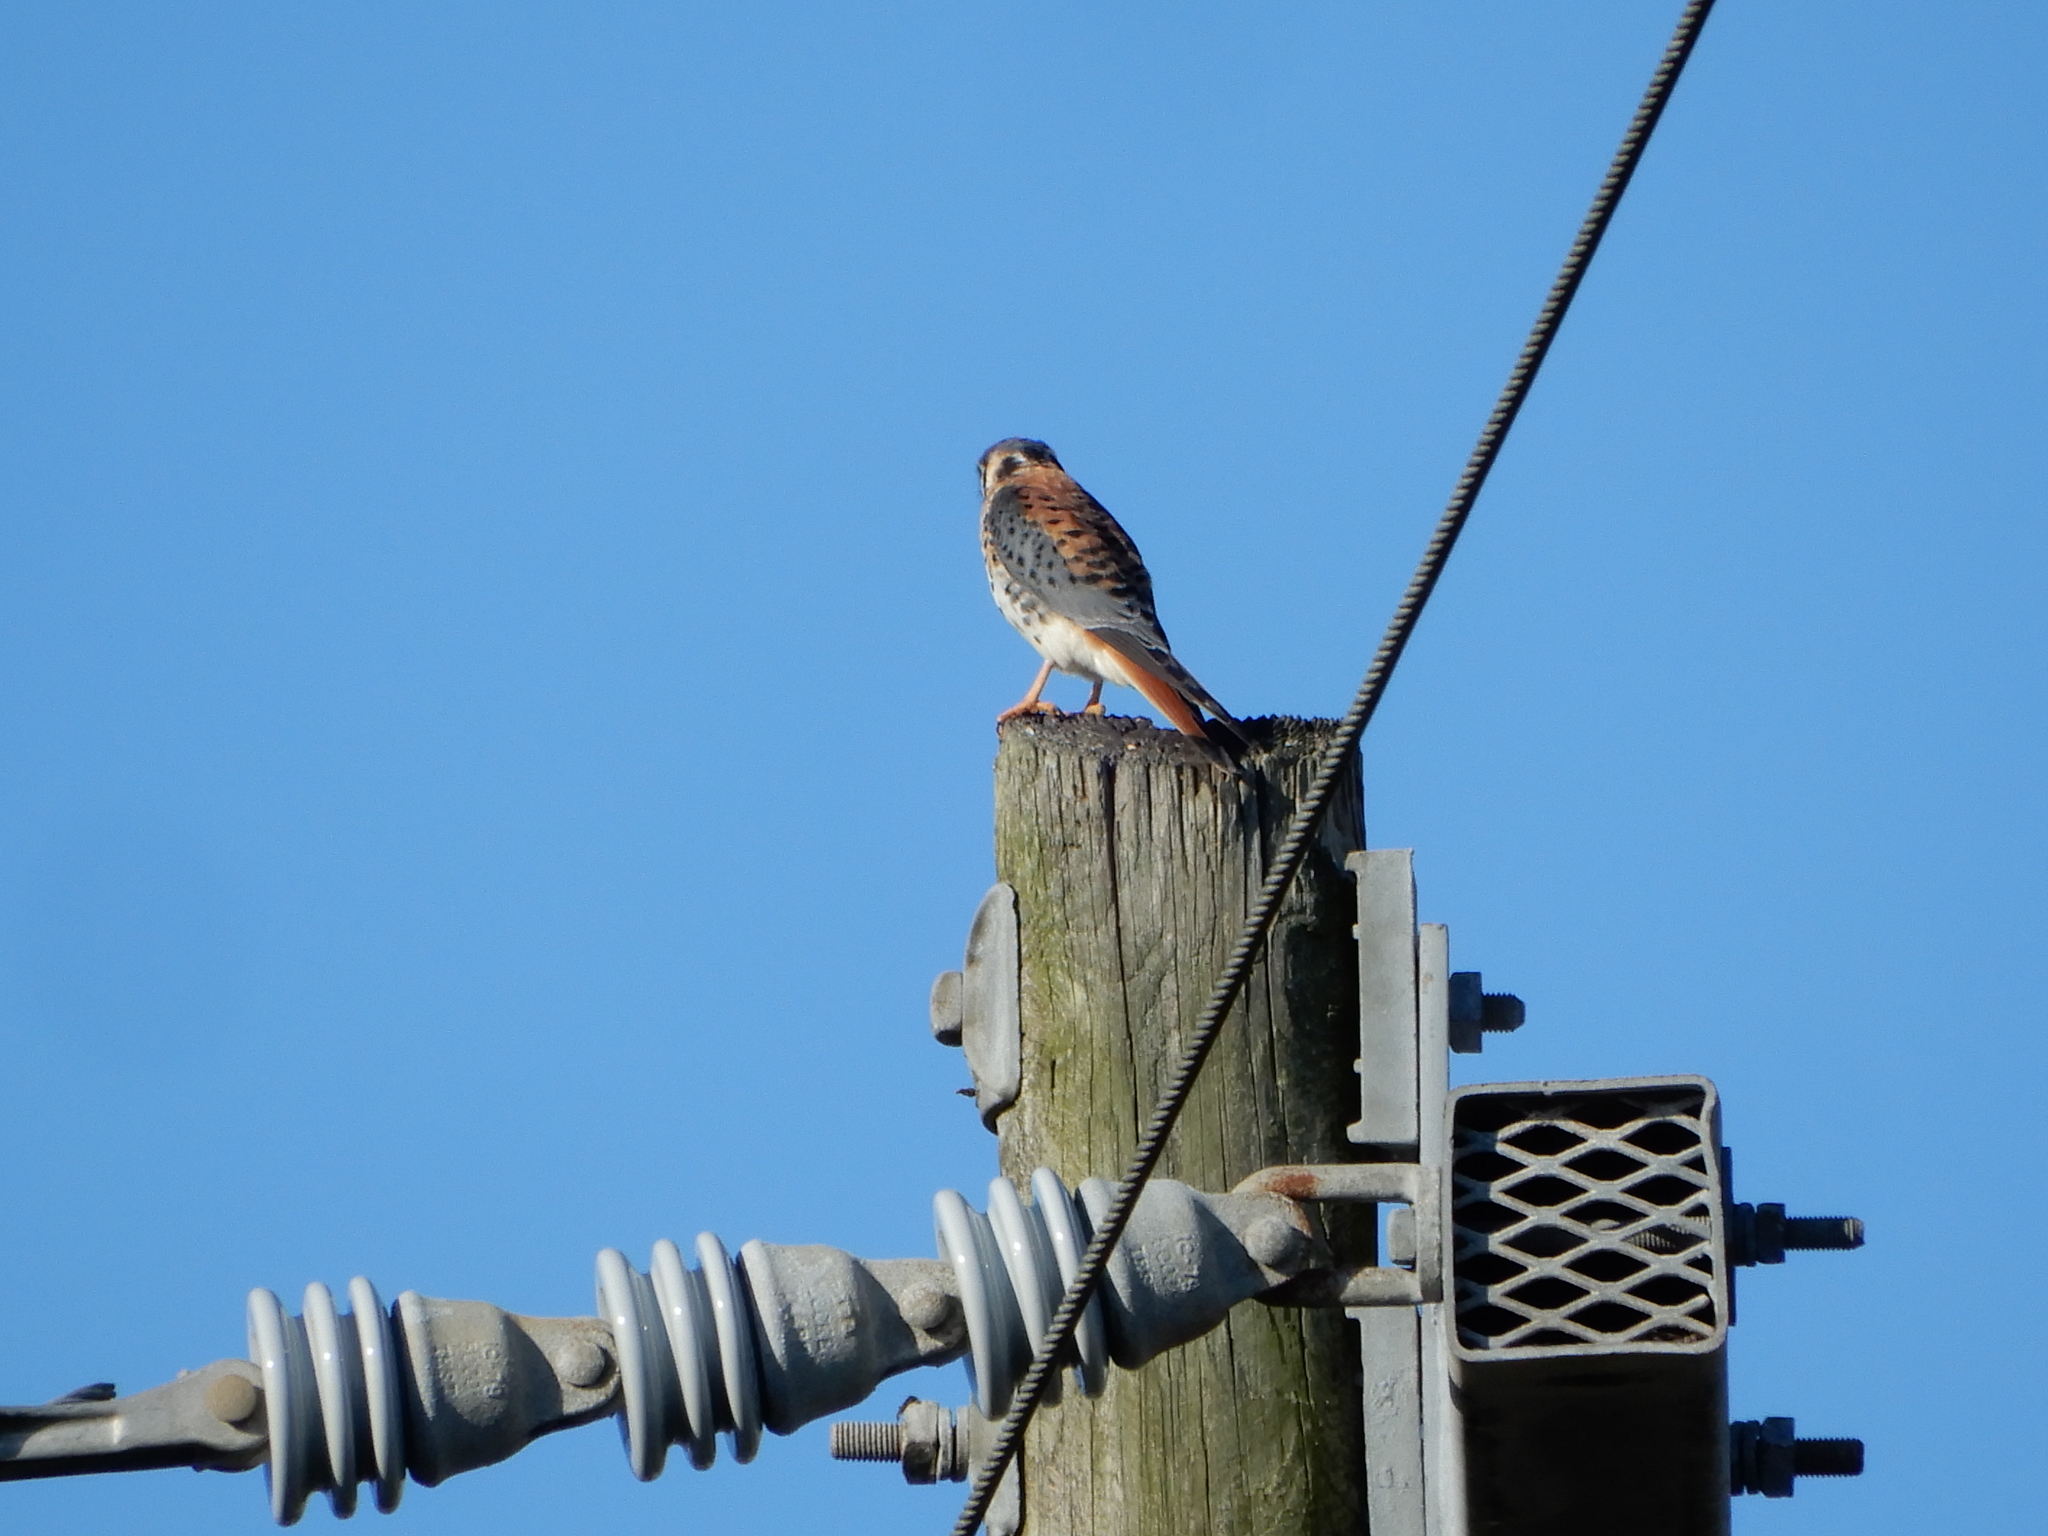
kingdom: Animalia
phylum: Chordata
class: Aves
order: Falconiformes
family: Falconidae
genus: Falco
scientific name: Falco sparverius
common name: American kestrel
